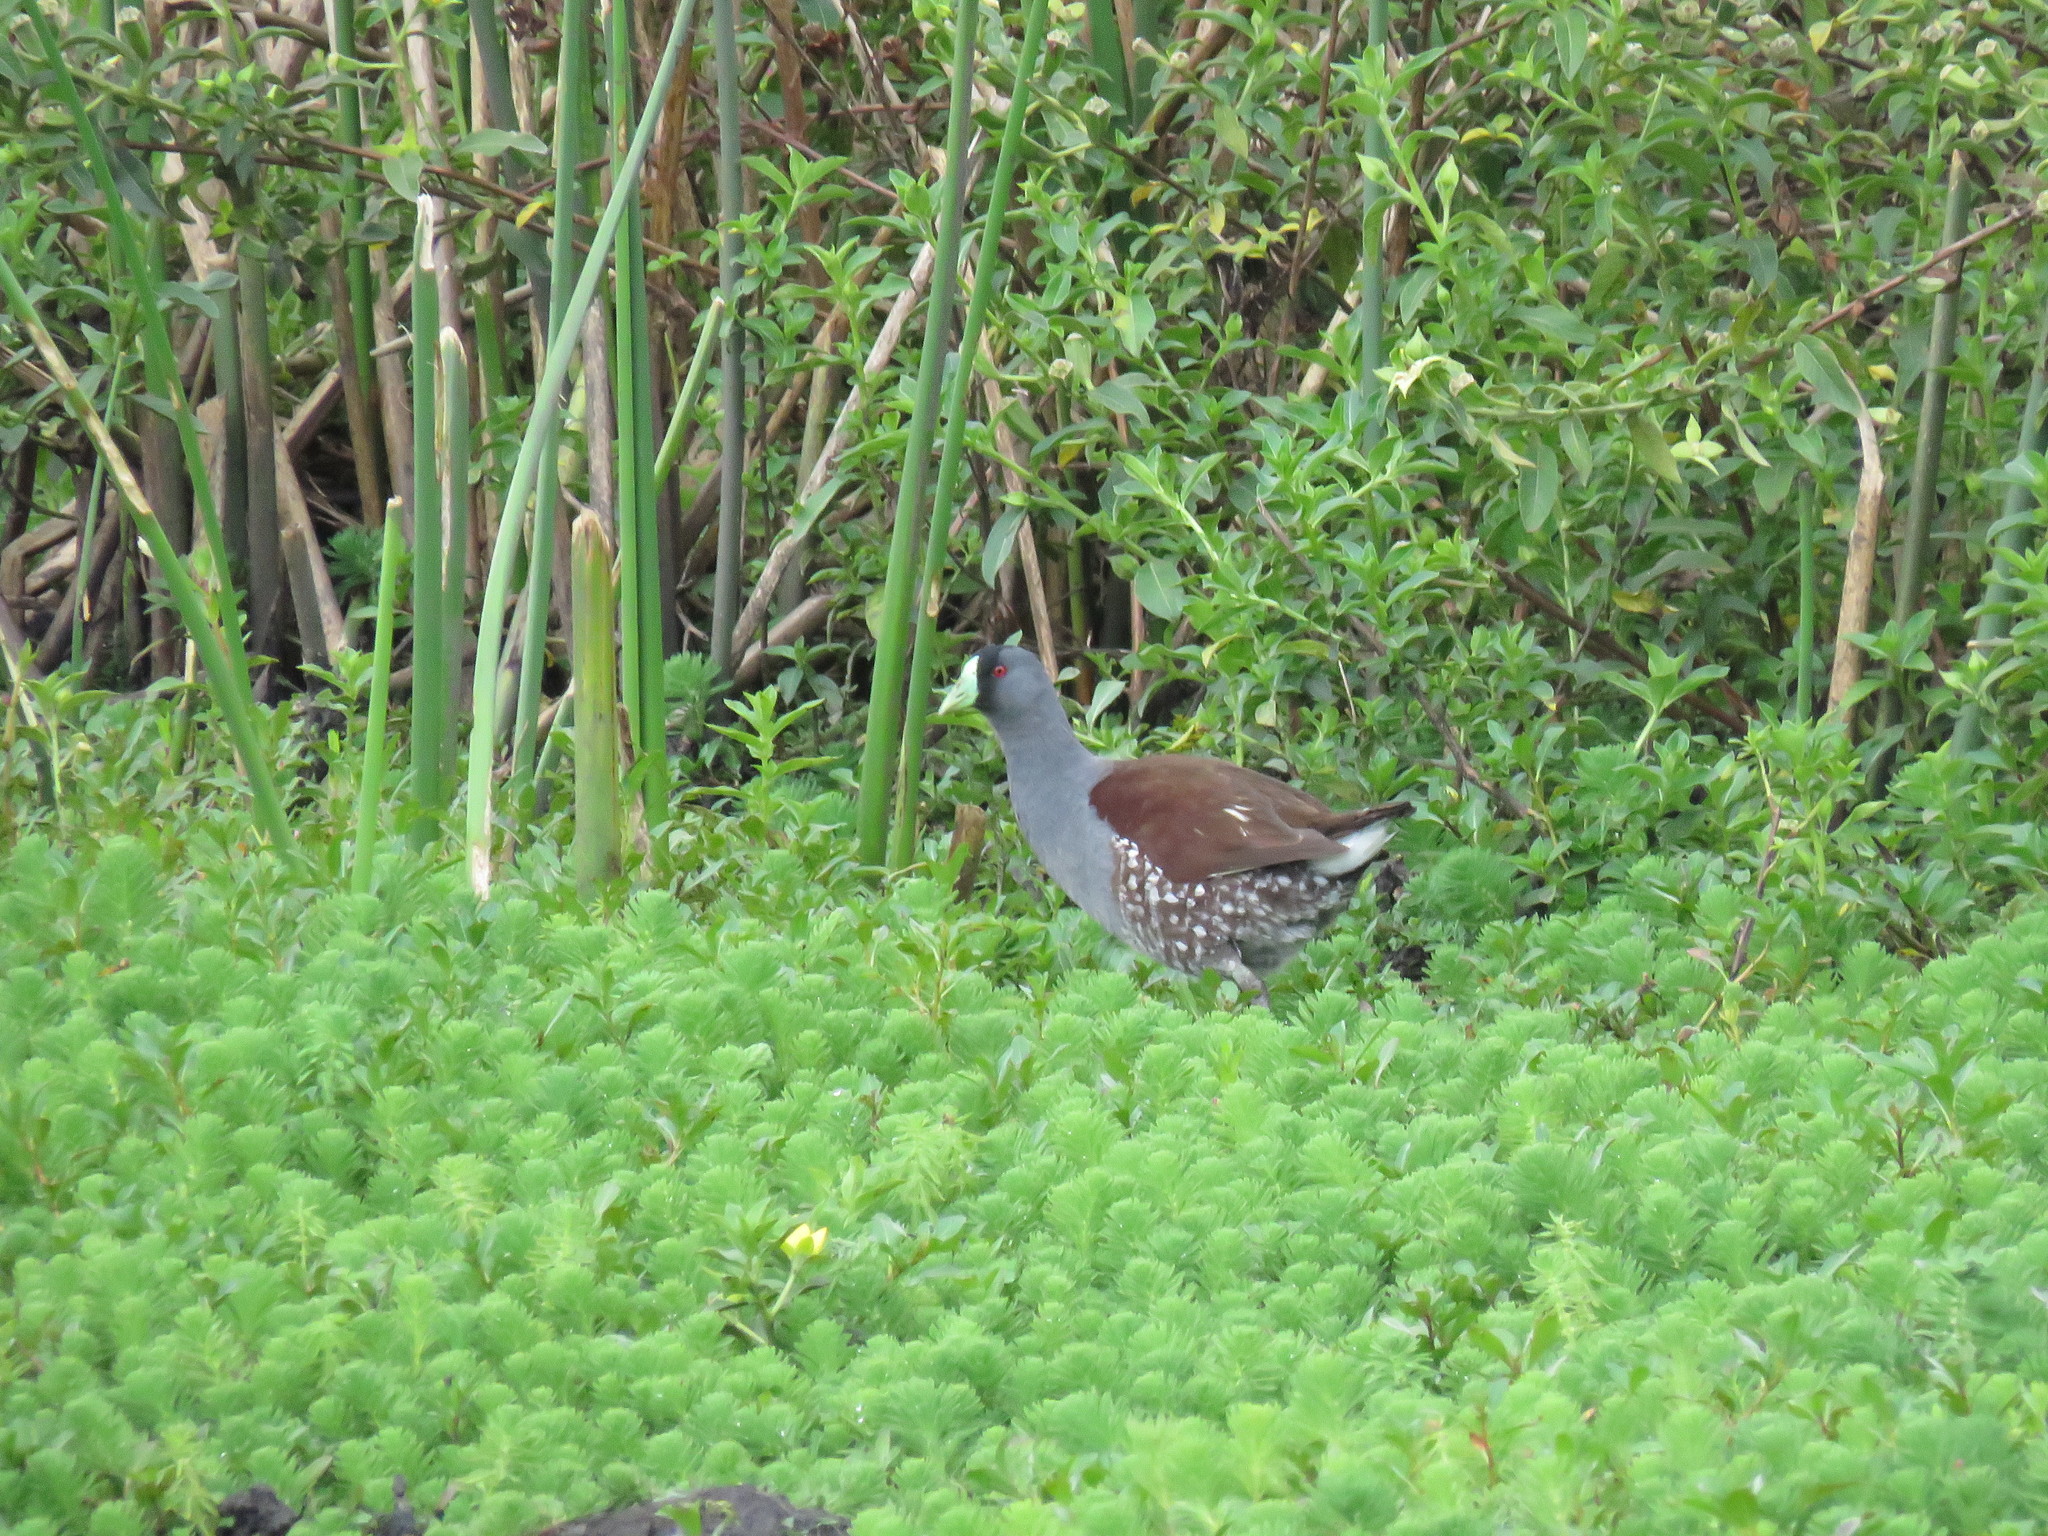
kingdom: Animalia
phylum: Chordata
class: Aves
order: Gruiformes
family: Rallidae
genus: Gallinula
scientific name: Gallinula melanops
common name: Spot-flanked gallinule
